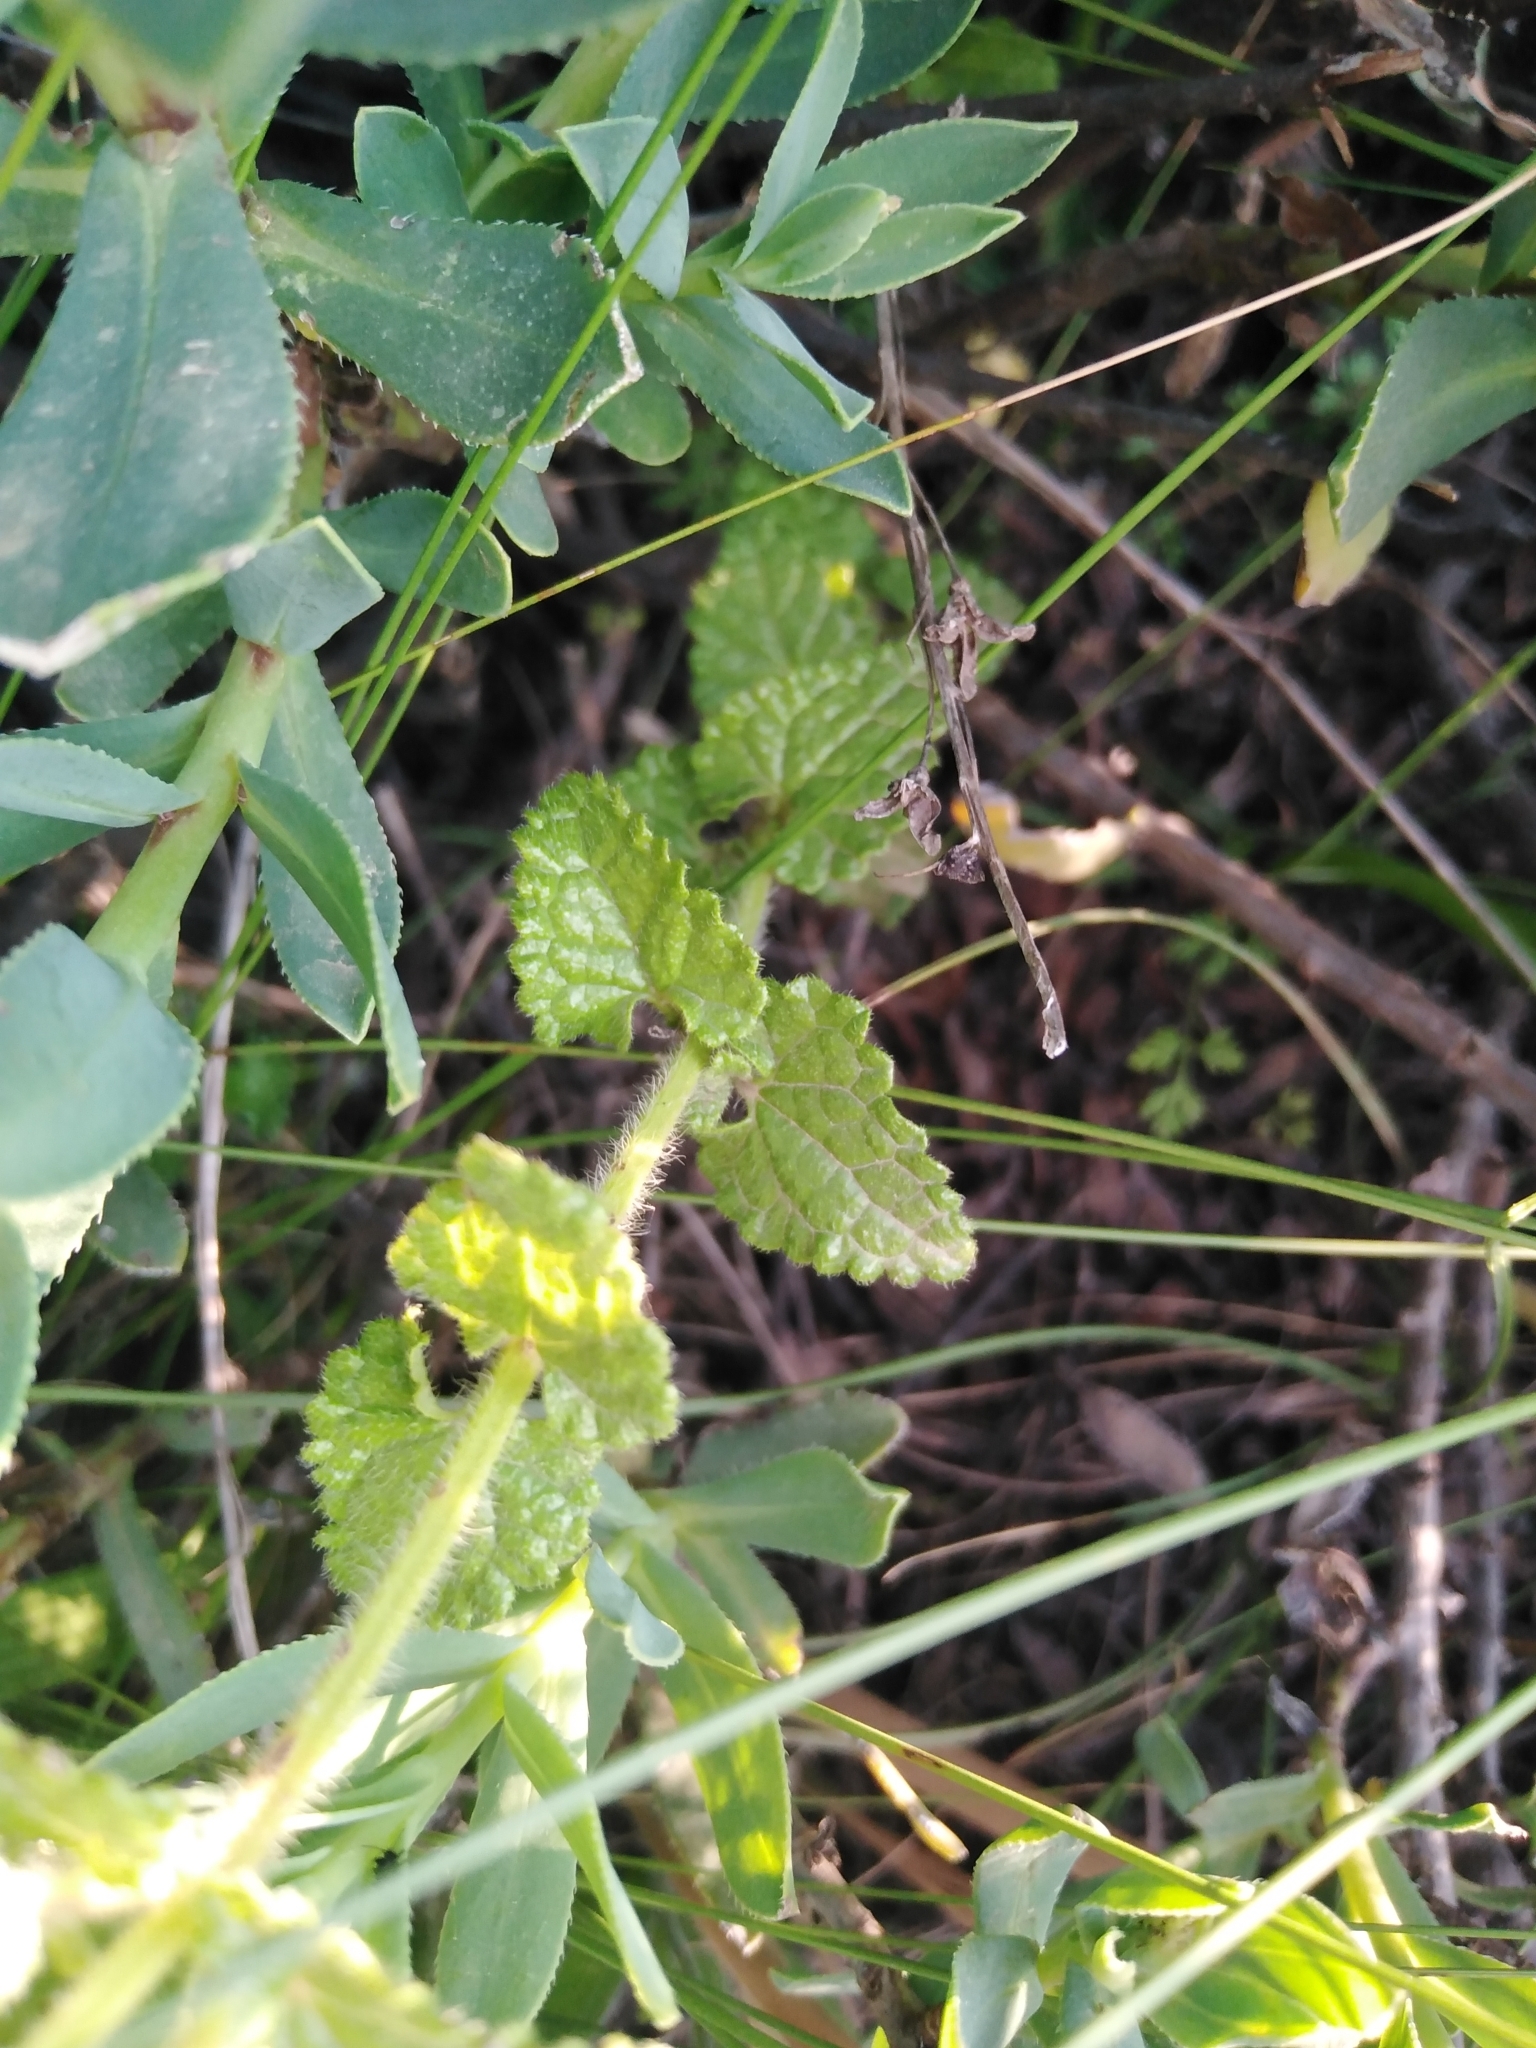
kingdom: Plantae
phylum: Tracheophyta
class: Magnoliopsida
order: Lamiales
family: Lamiaceae
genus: Stachys
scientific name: Stachys aethiopica
